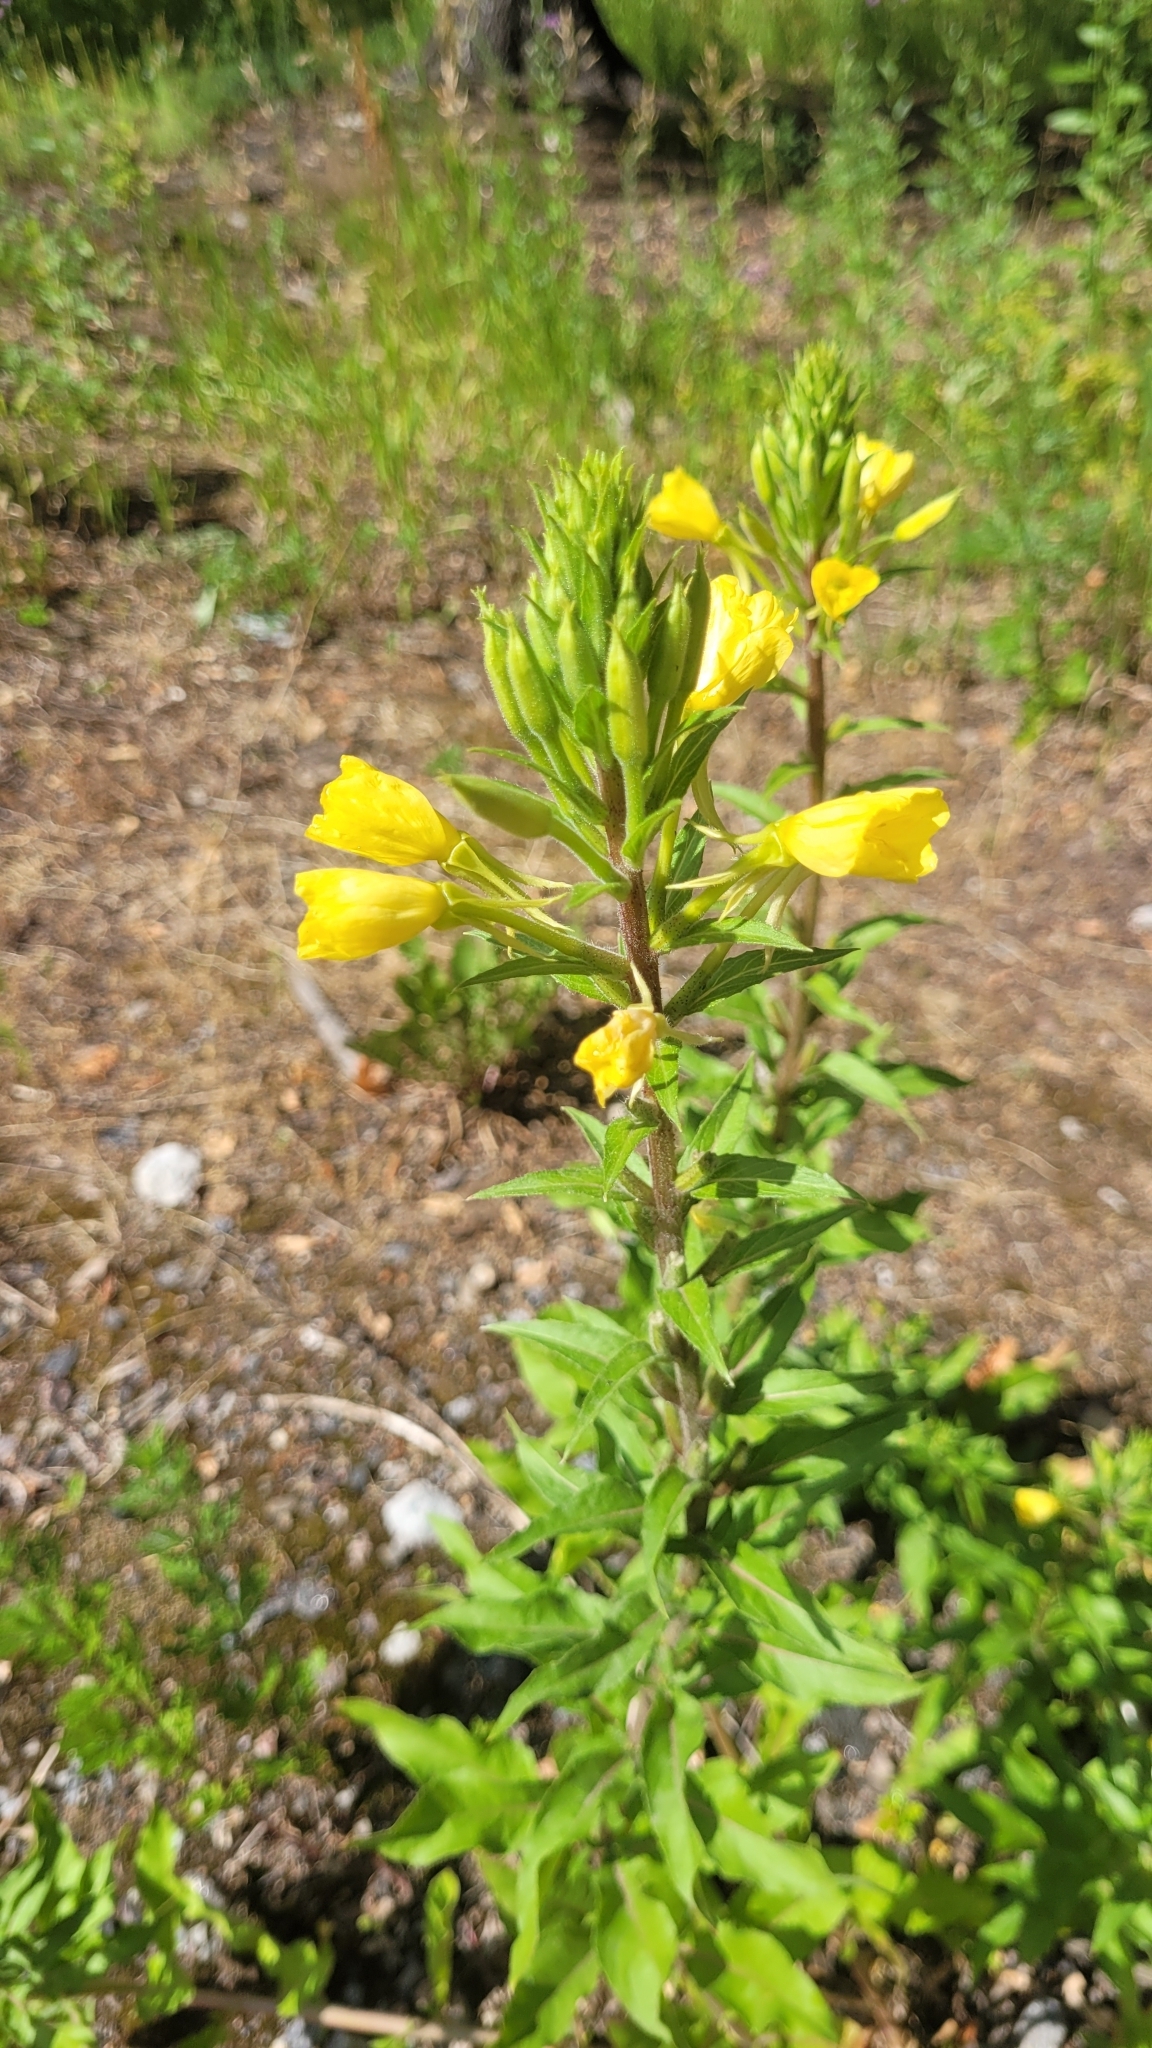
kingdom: Plantae
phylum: Tracheophyta
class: Magnoliopsida
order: Myrtales
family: Onagraceae
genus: Oenothera
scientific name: Oenothera rubricaulis
